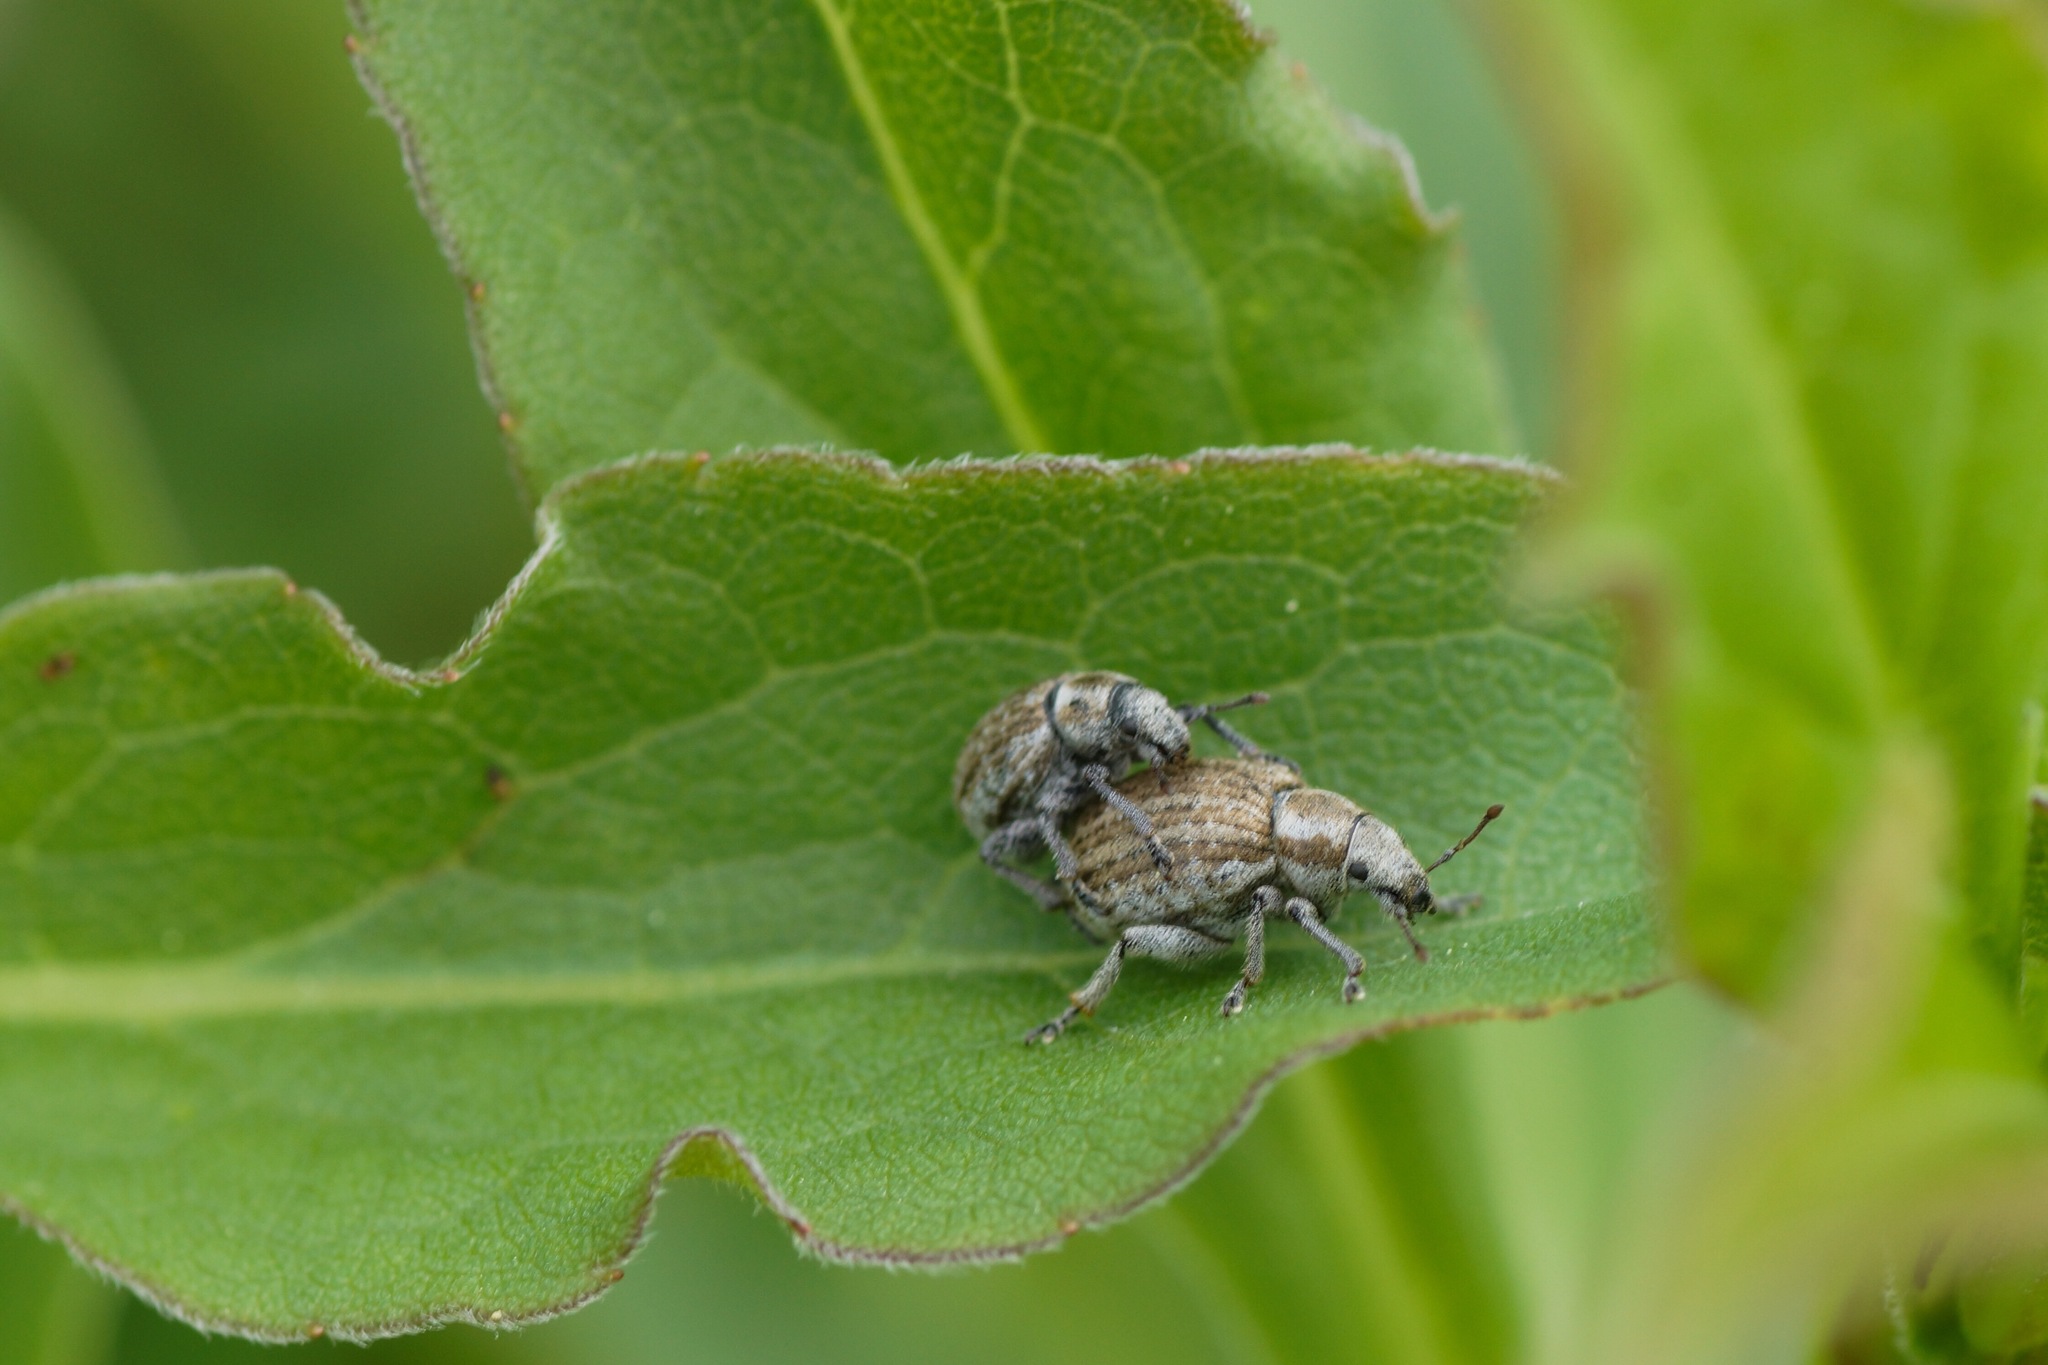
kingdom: Animalia
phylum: Arthropoda
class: Insecta
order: Coleoptera
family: Curculionidae
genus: Philopedon
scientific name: Philopedon plagiatum
